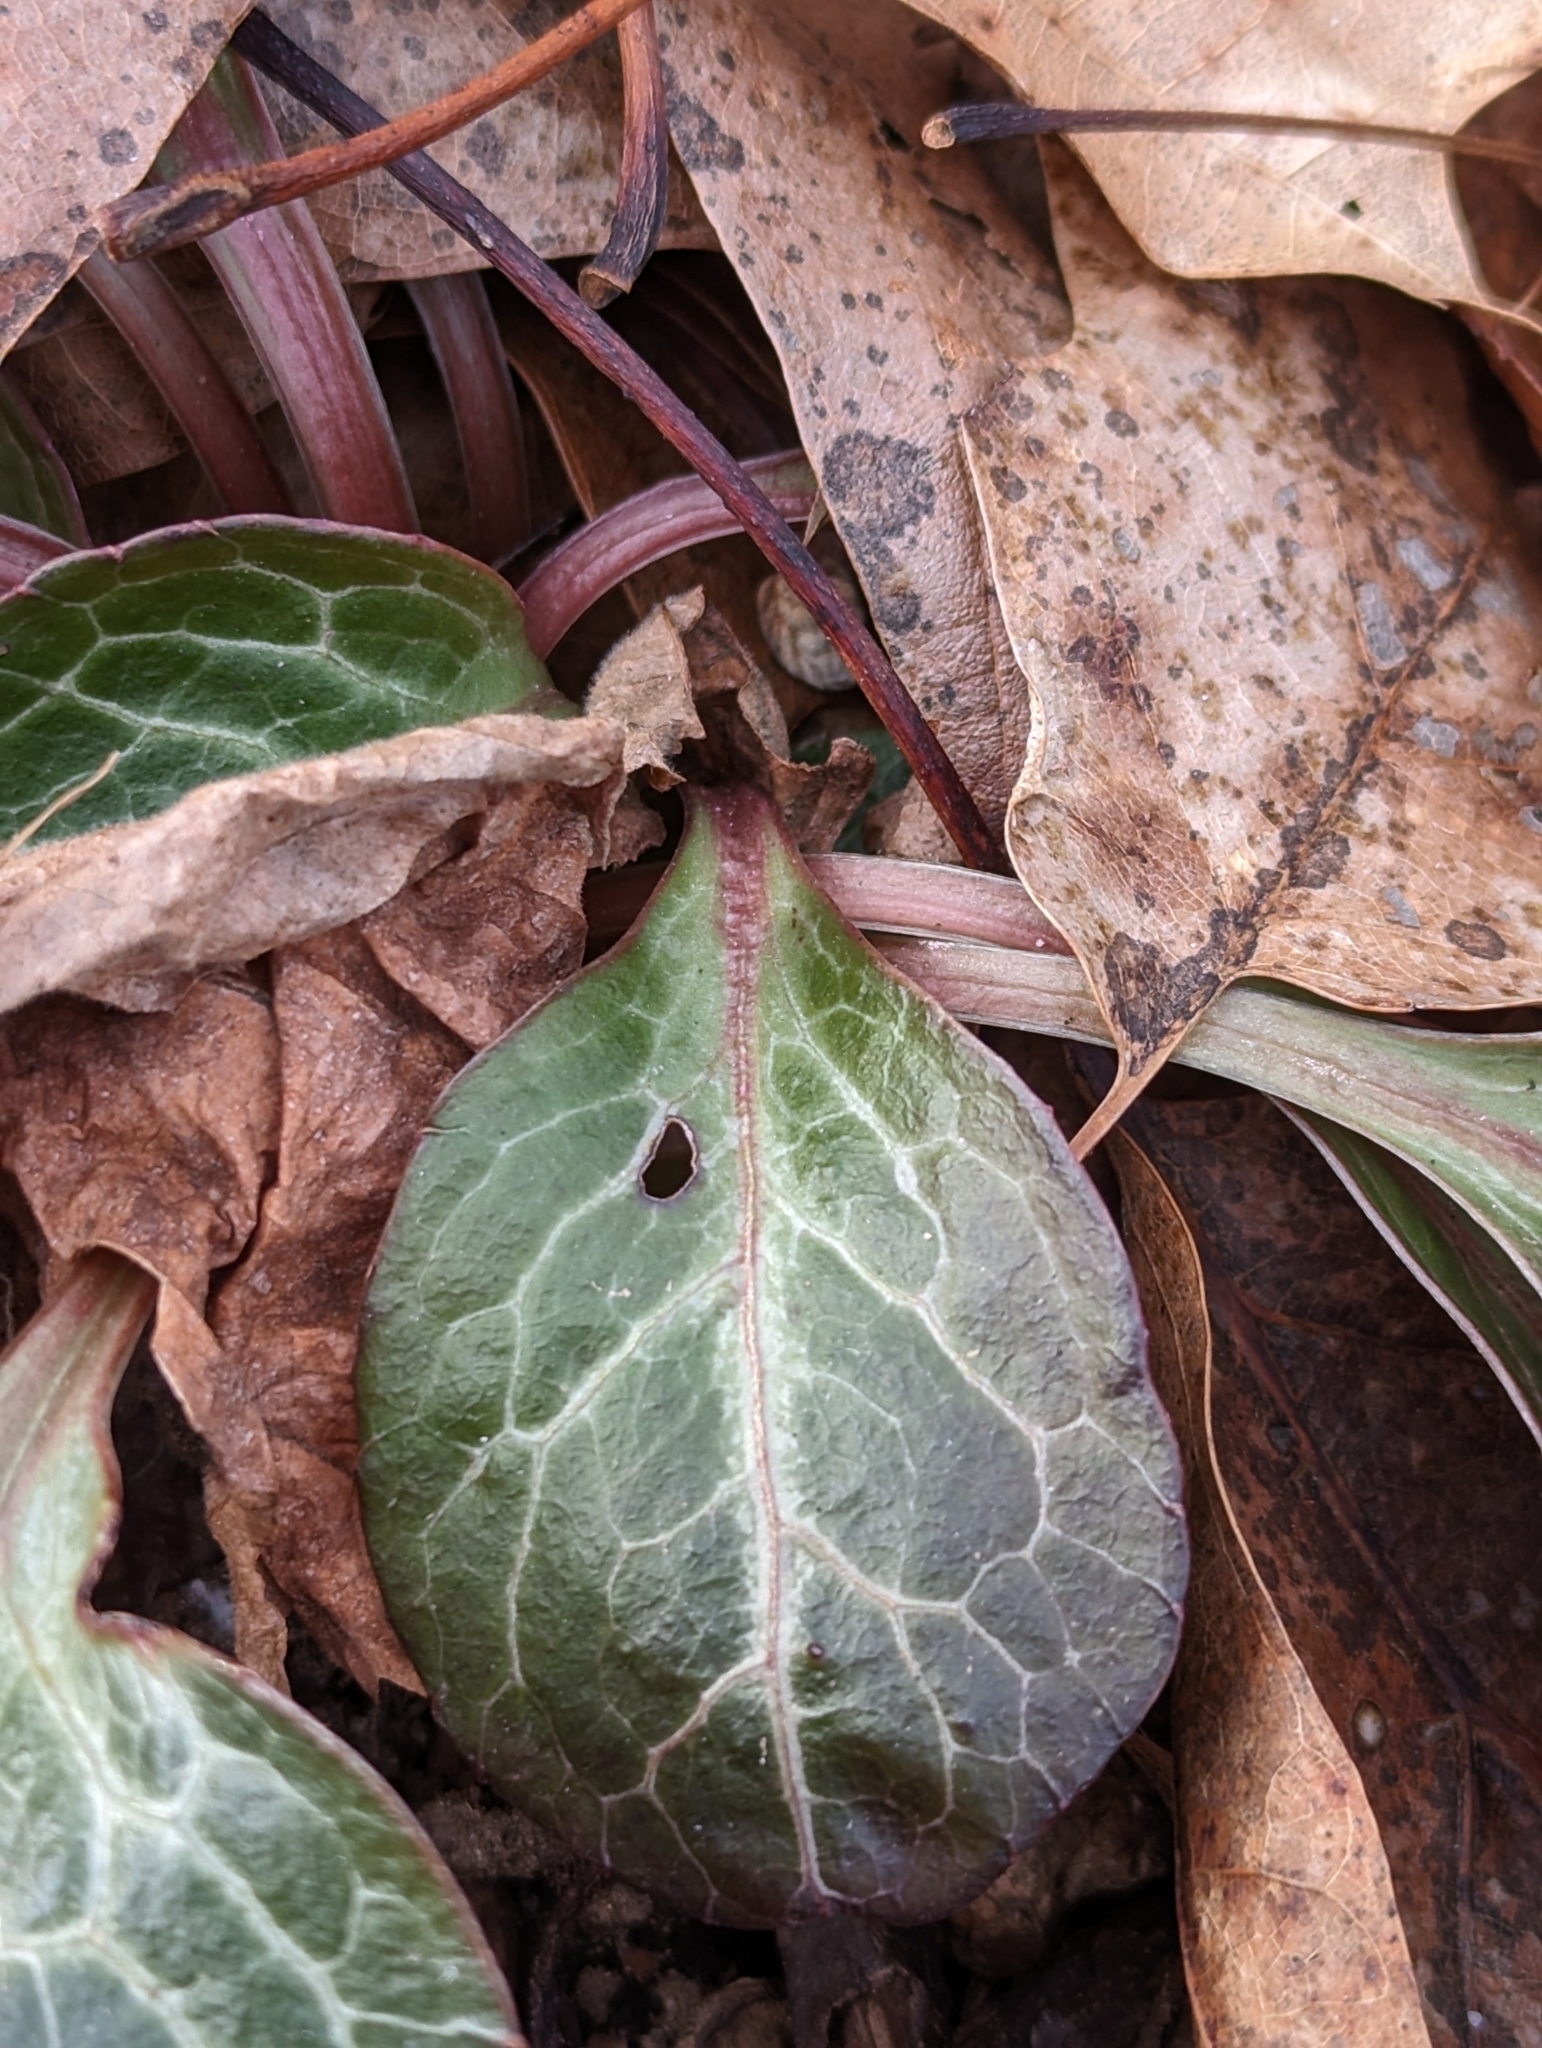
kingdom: Plantae
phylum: Tracheophyta
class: Magnoliopsida
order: Ericales
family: Ericaceae
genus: Pyrola
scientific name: Pyrola americana
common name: American wintergreen
